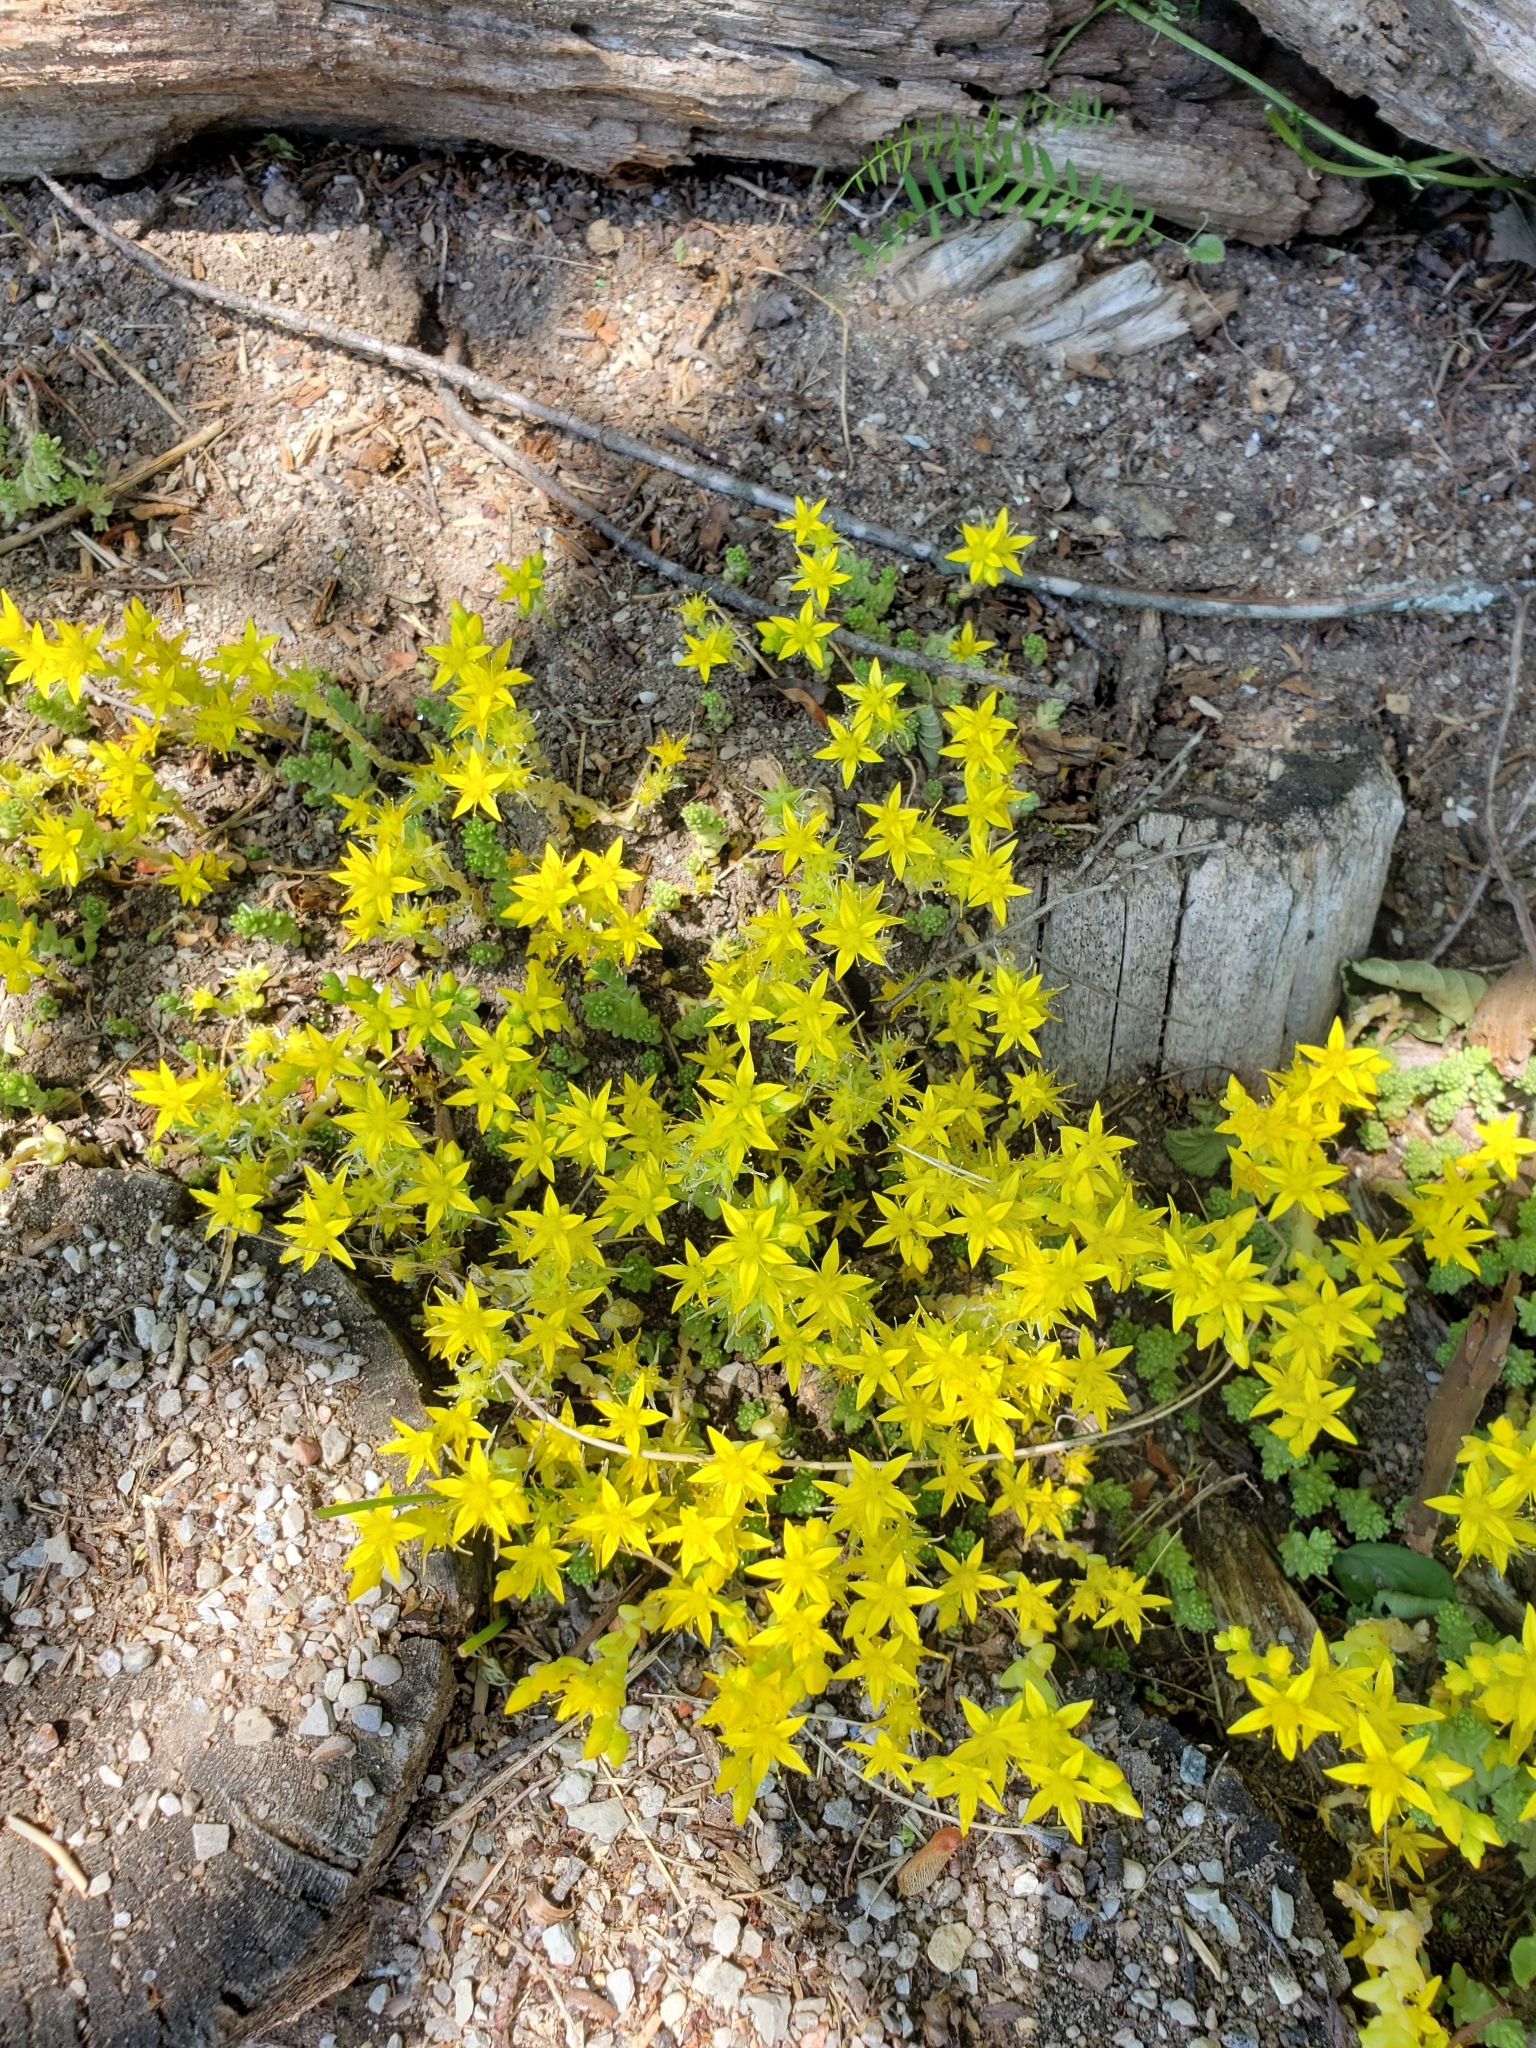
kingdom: Plantae
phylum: Tracheophyta
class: Magnoliopsida
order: Saxifragales
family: Crassulaceae
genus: Sedum
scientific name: Sedum acre
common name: Biting stonecrop
